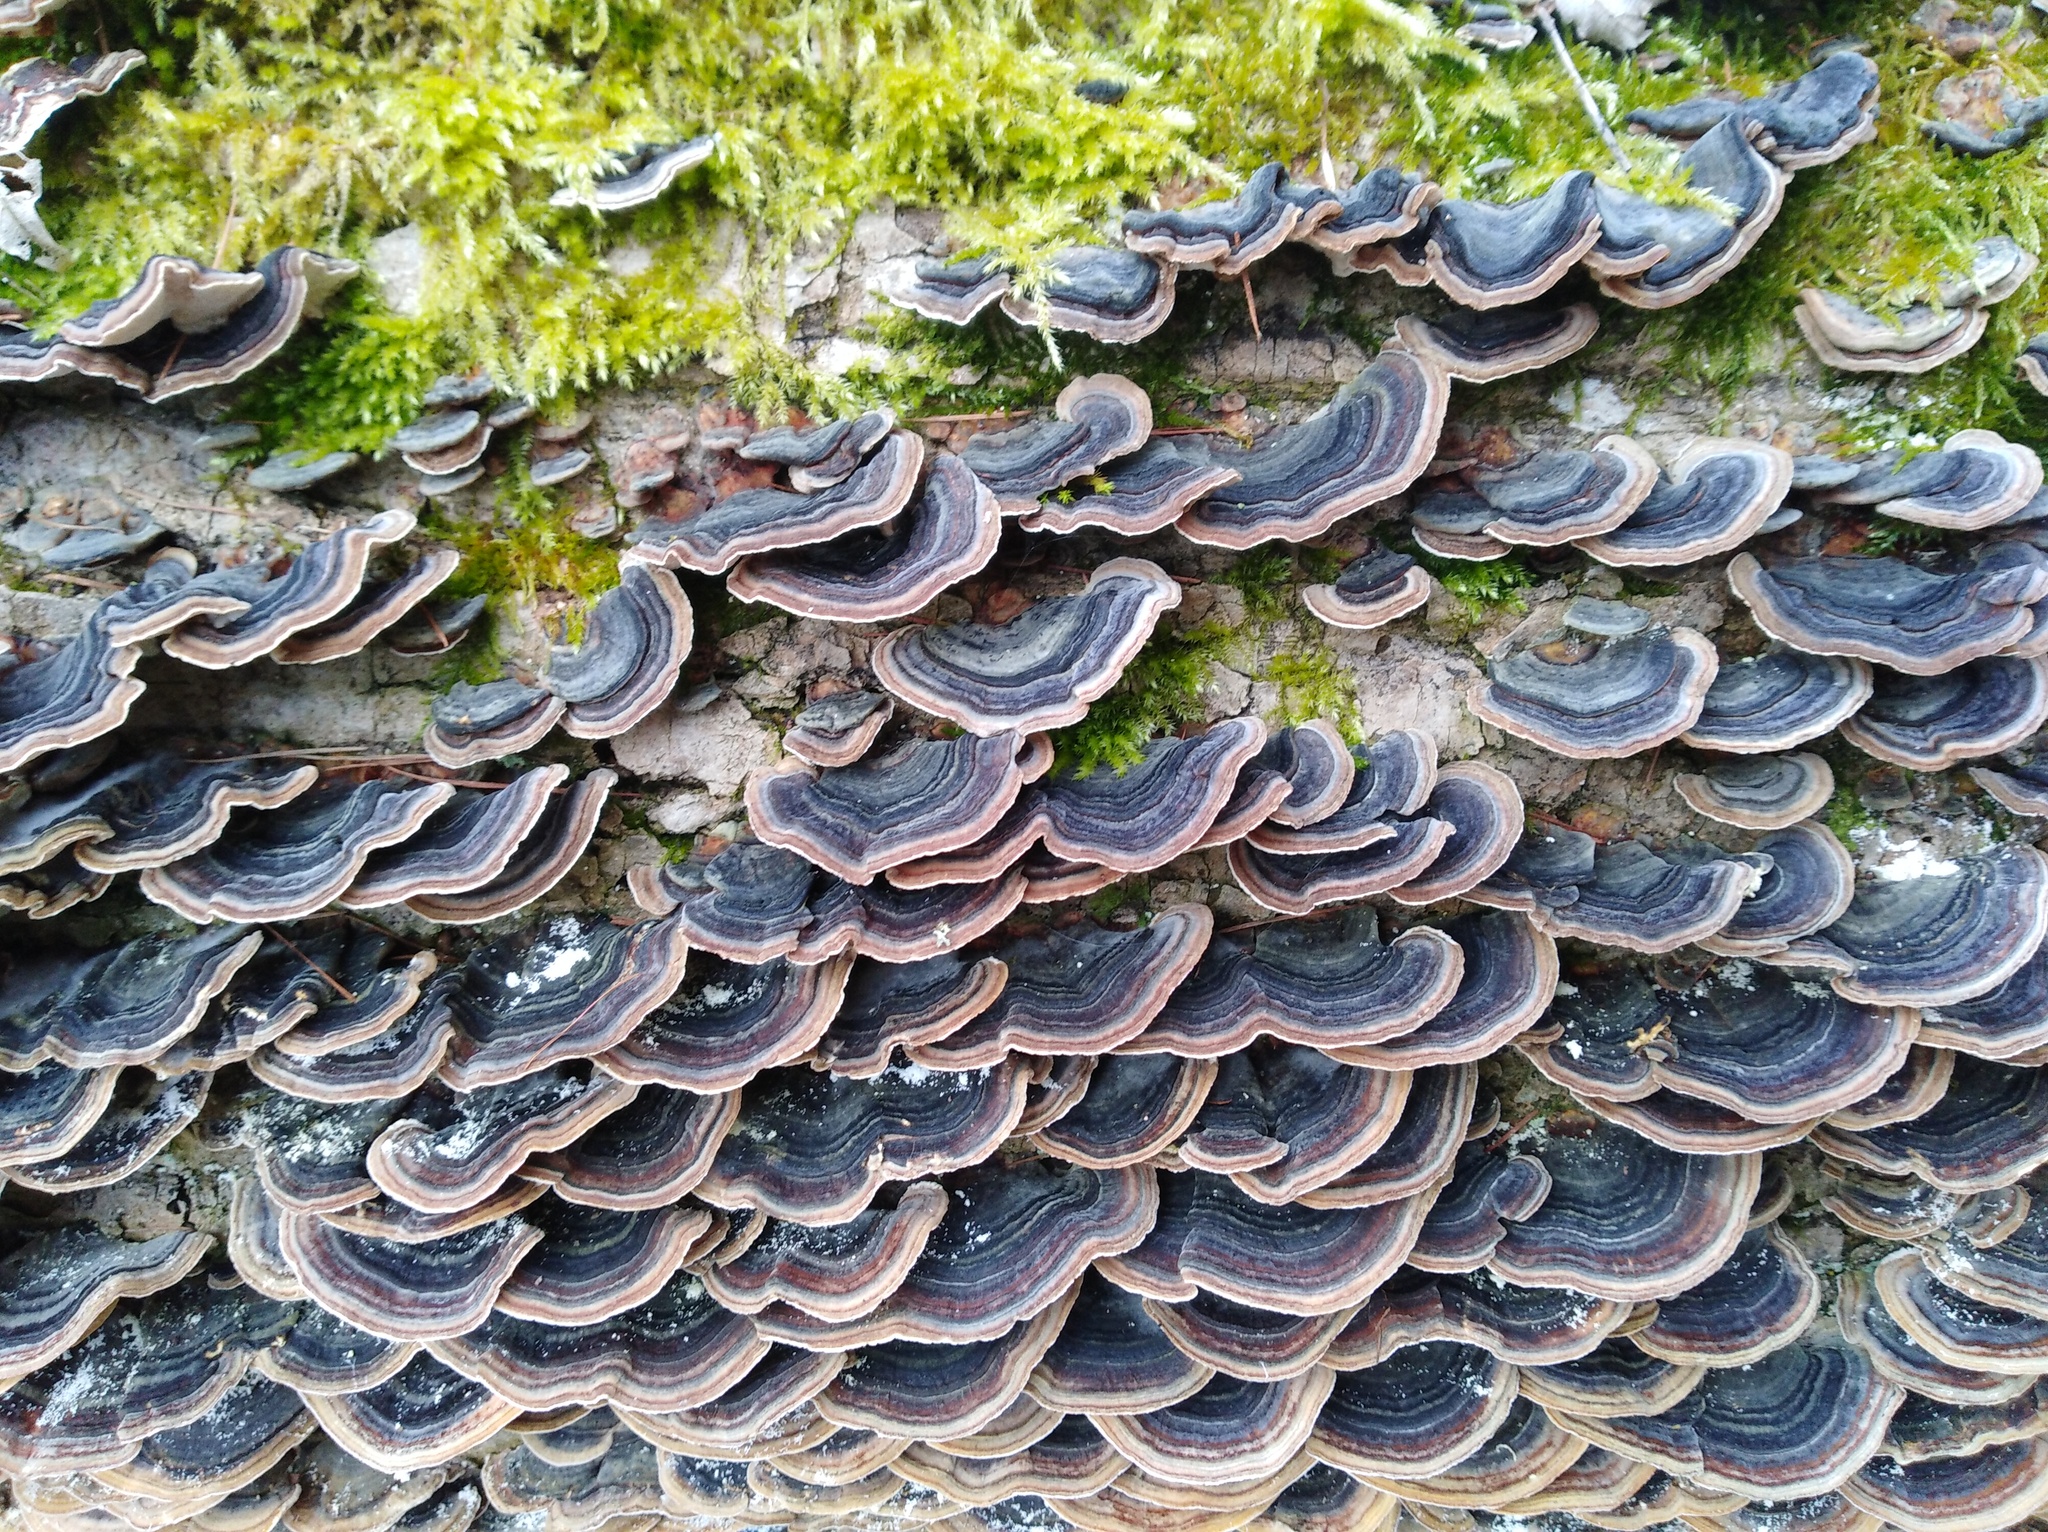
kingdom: Fungi
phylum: Basidiomycota
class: Agaricomycetes
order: Polyporales
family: Polyporaceae
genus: Trametes
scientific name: Trametes versicolor
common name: Turkeytail
